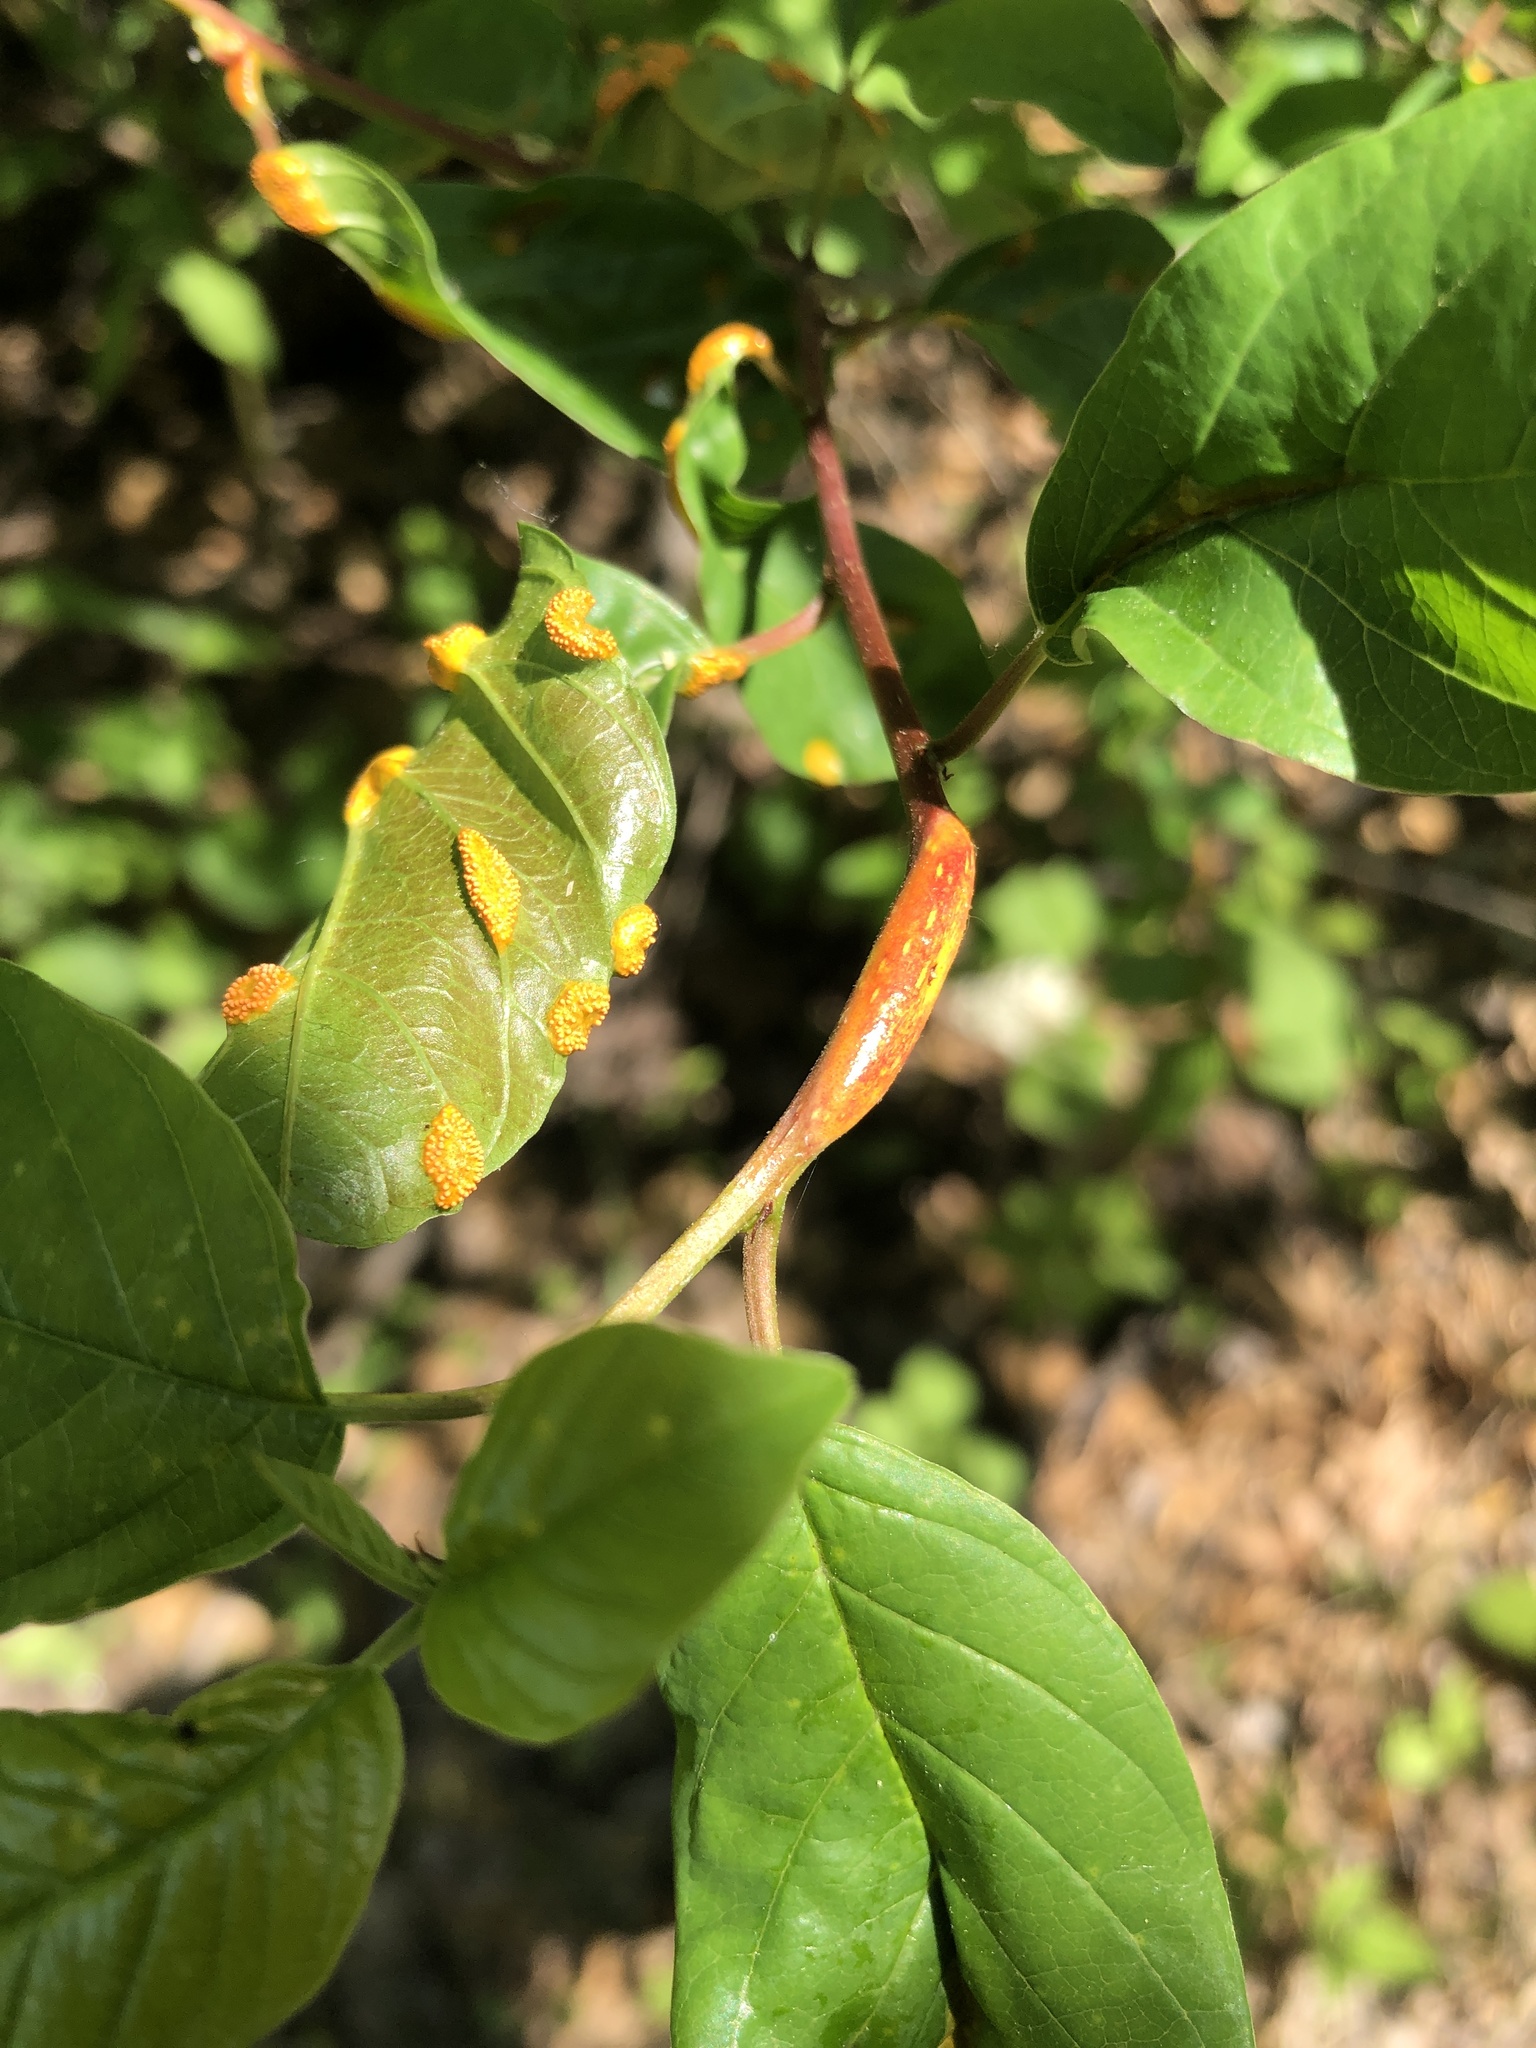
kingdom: Fungi
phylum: Basidiomycota
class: Pucciniomycetes
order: Pucciniales
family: Pucciniaceae
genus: Puccinia
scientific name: Puccinia coronata
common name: Crown rust
